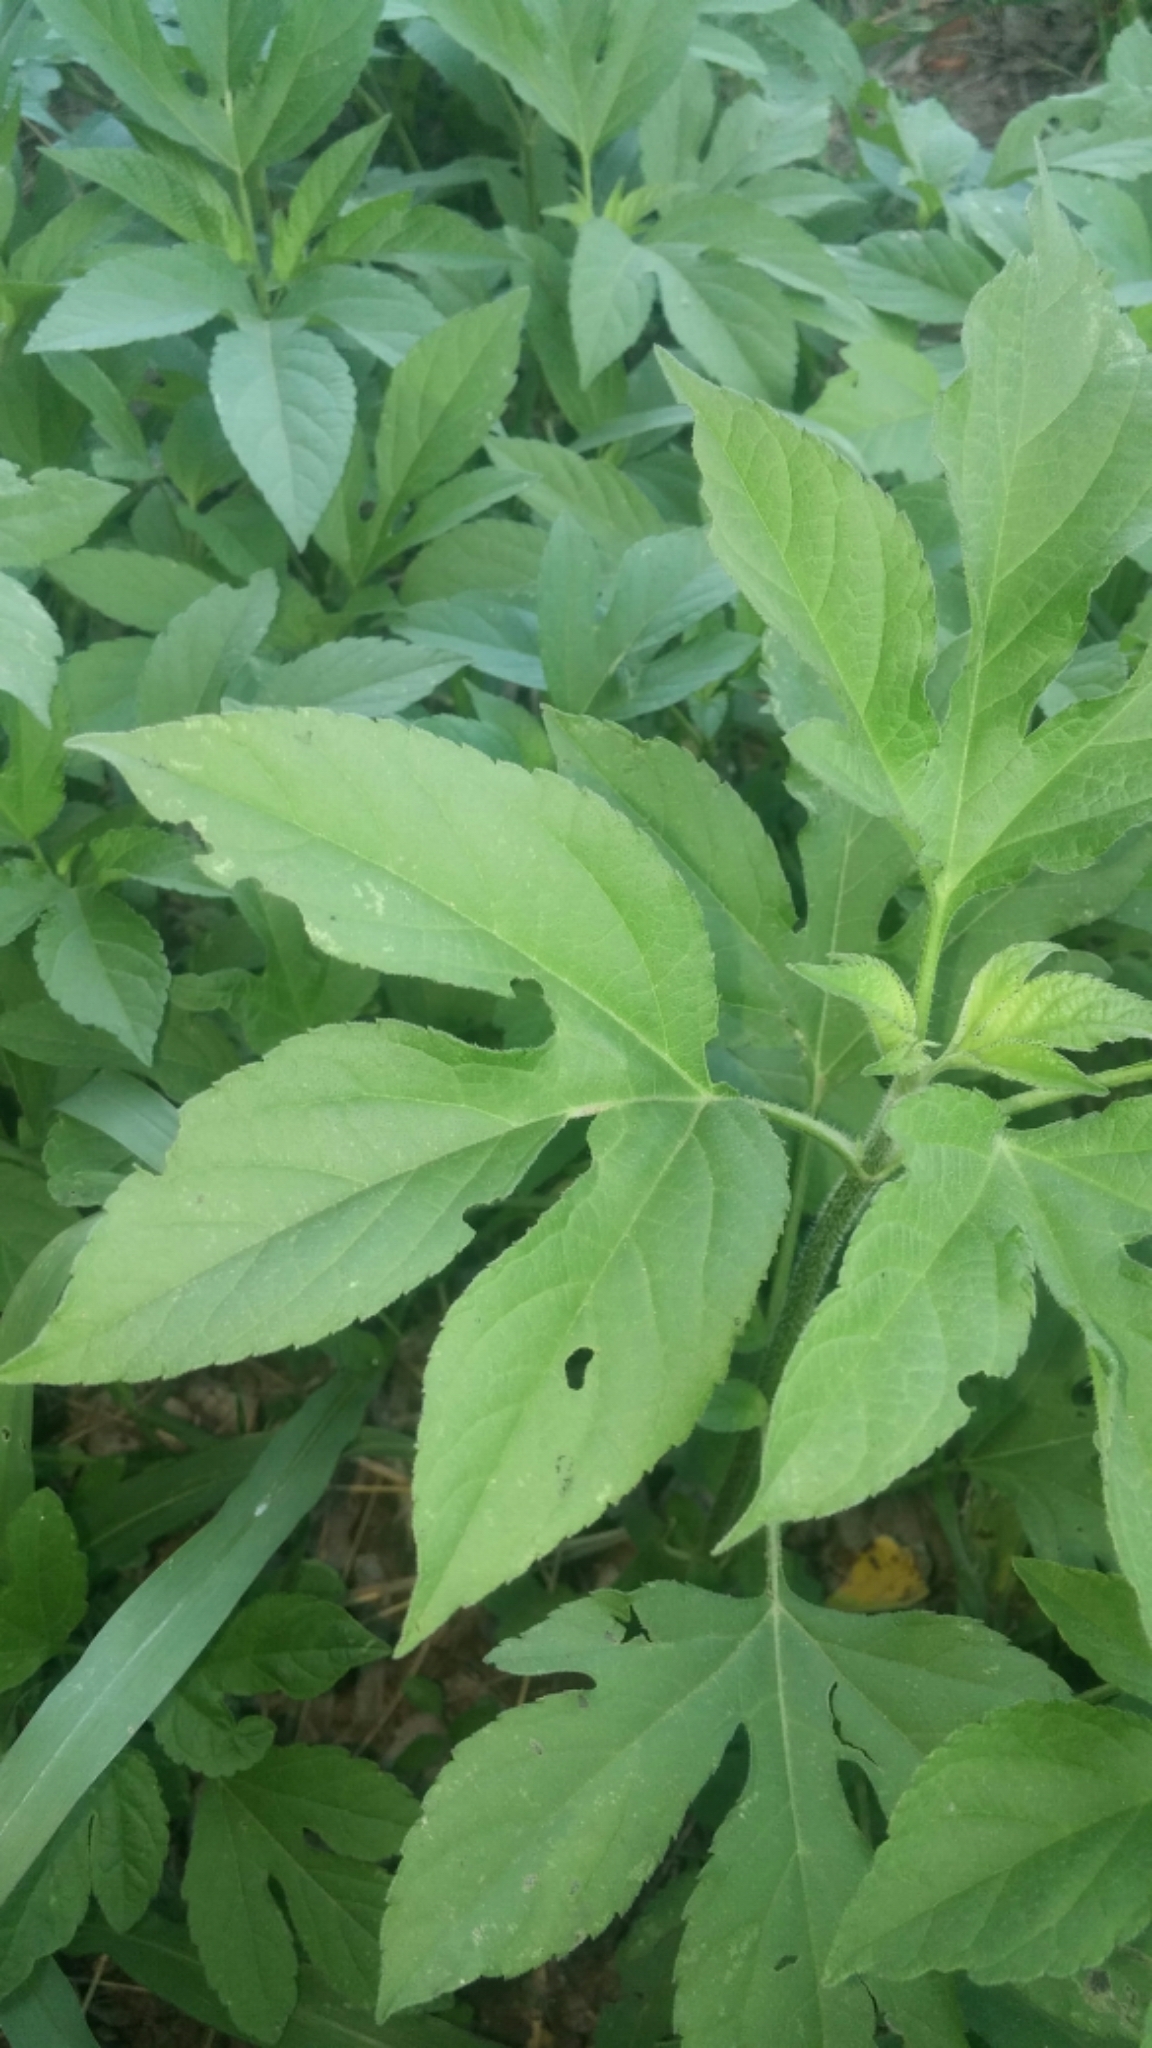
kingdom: Plantae
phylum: Tracheophyta
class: Magnoliopsida
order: Asterales
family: Asteraceae
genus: Ambrosia
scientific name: Ambrosia trifida
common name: Giant ragweed
